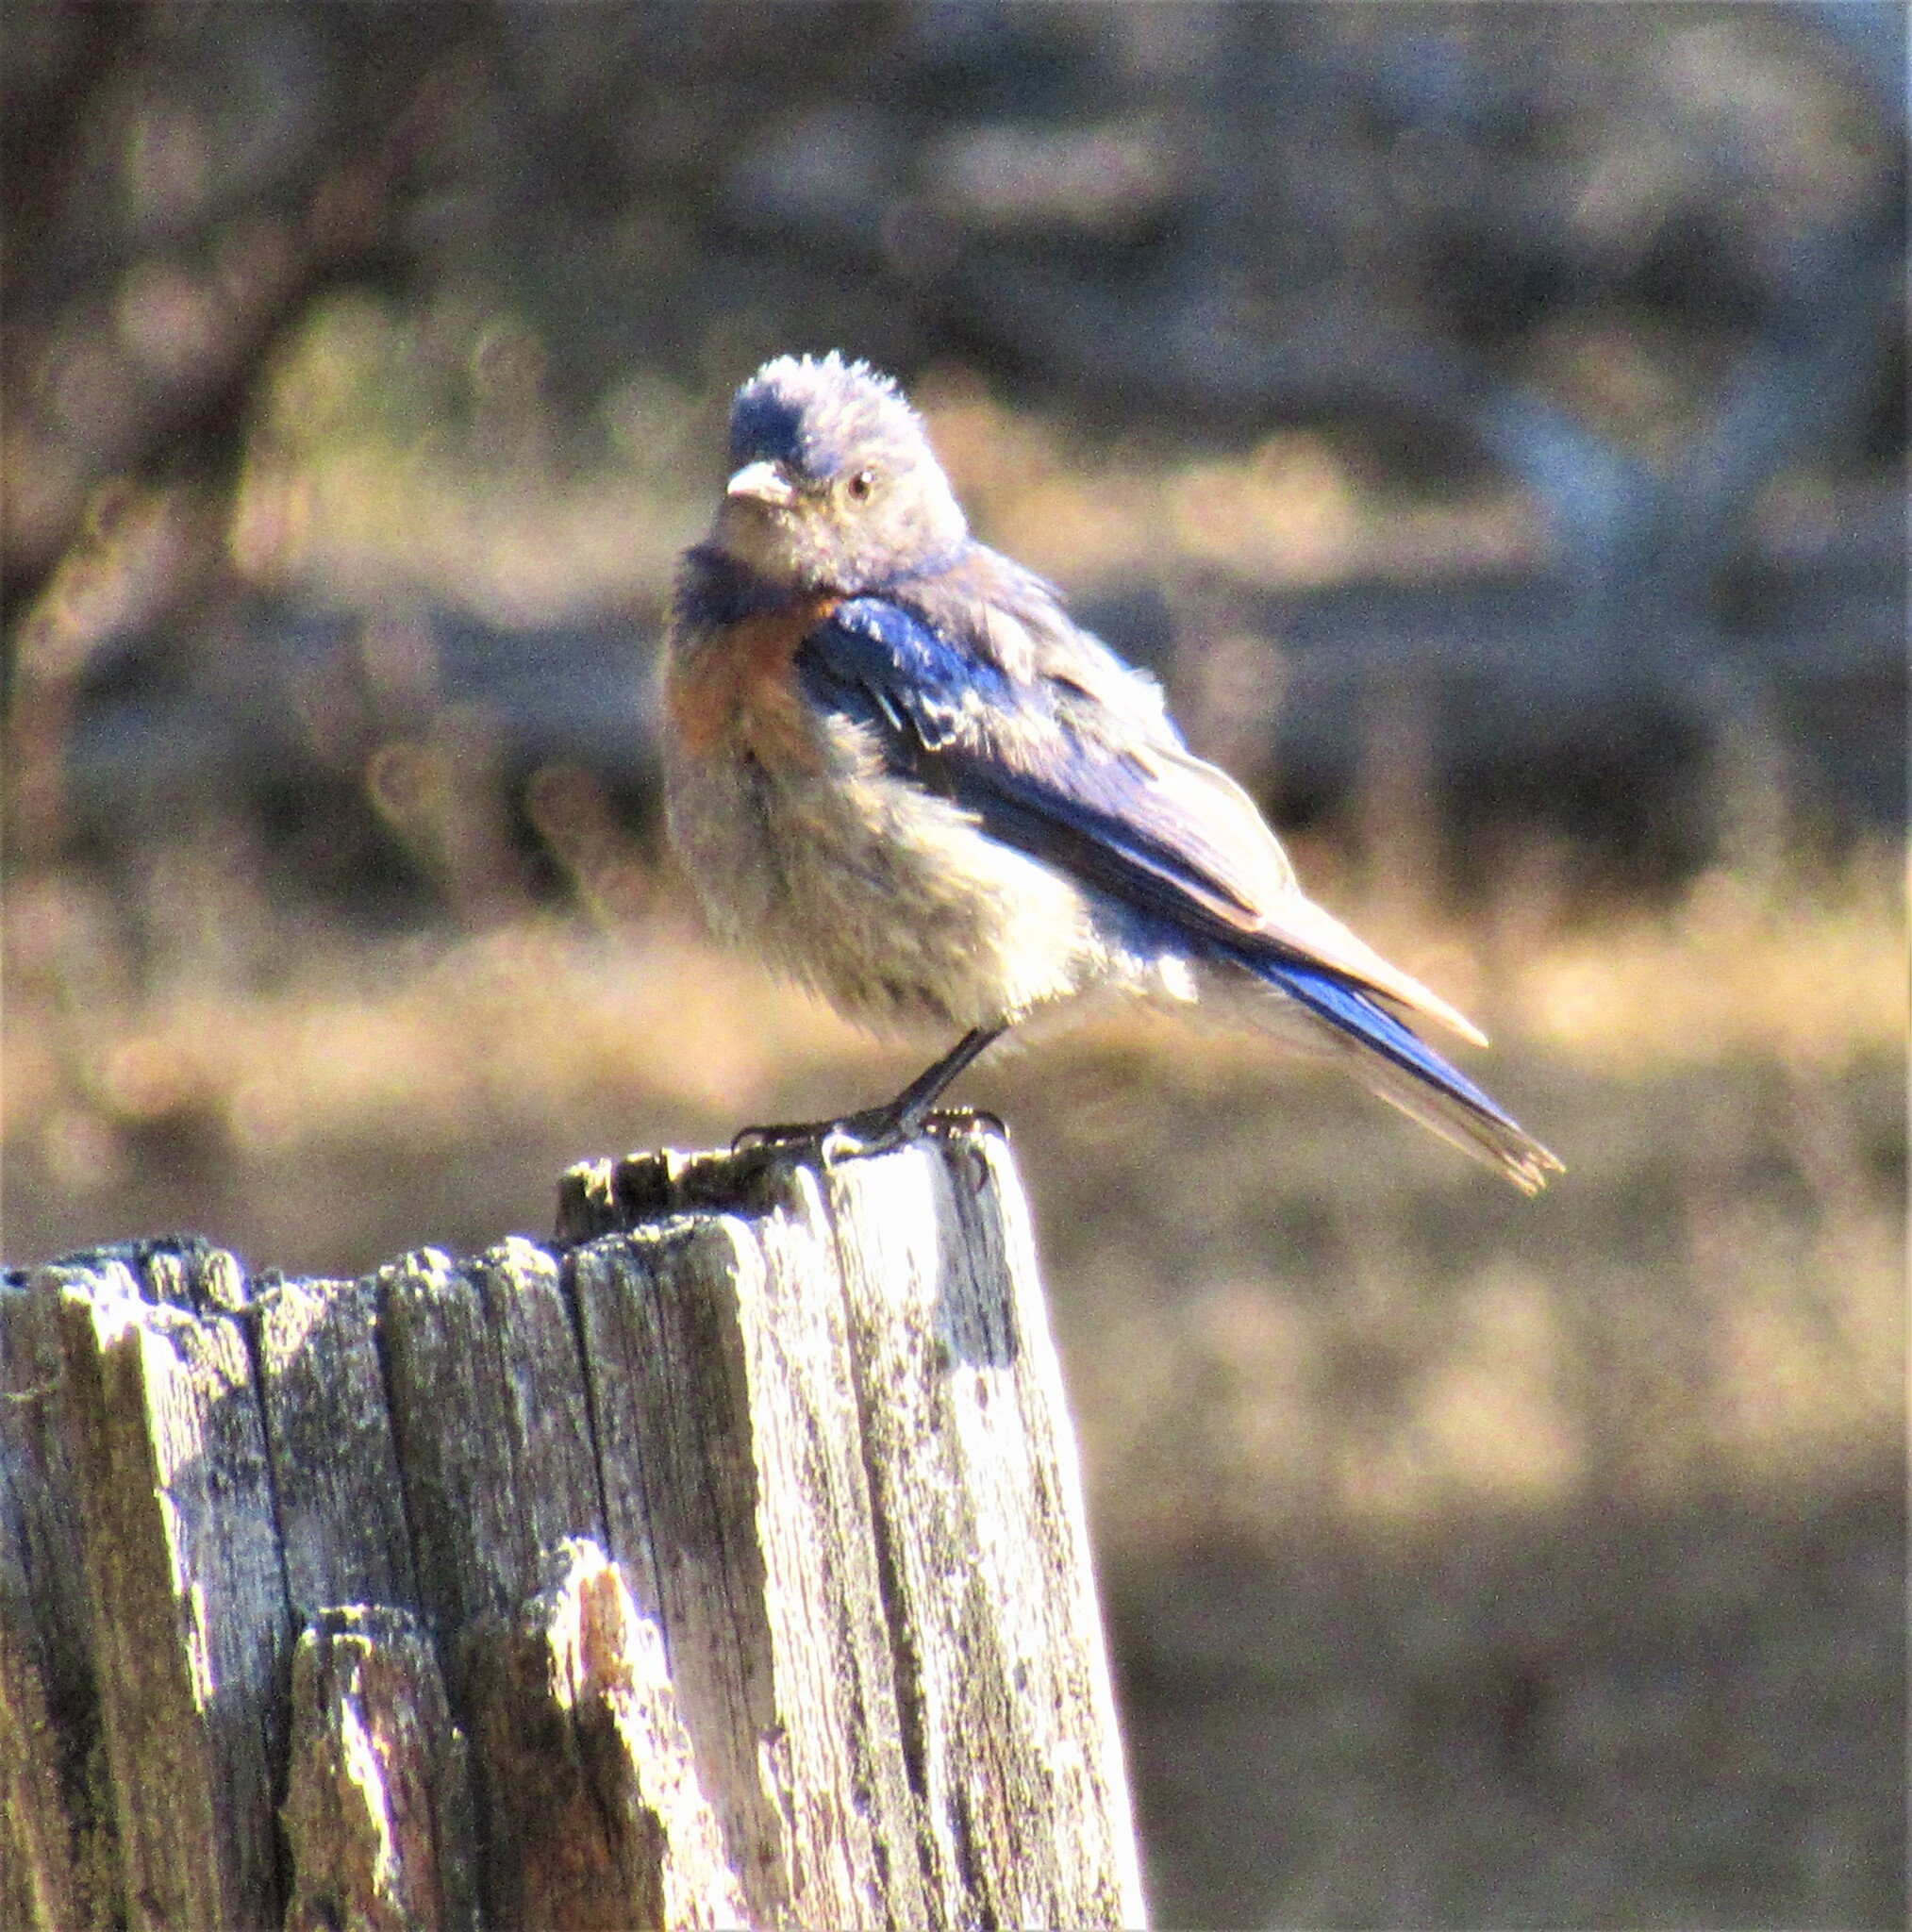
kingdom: Animalia
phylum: Chordata
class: Aves
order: Passeriformes
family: Turdidae
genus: Sialia
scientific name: Sialia mexicana
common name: Western bluebird
